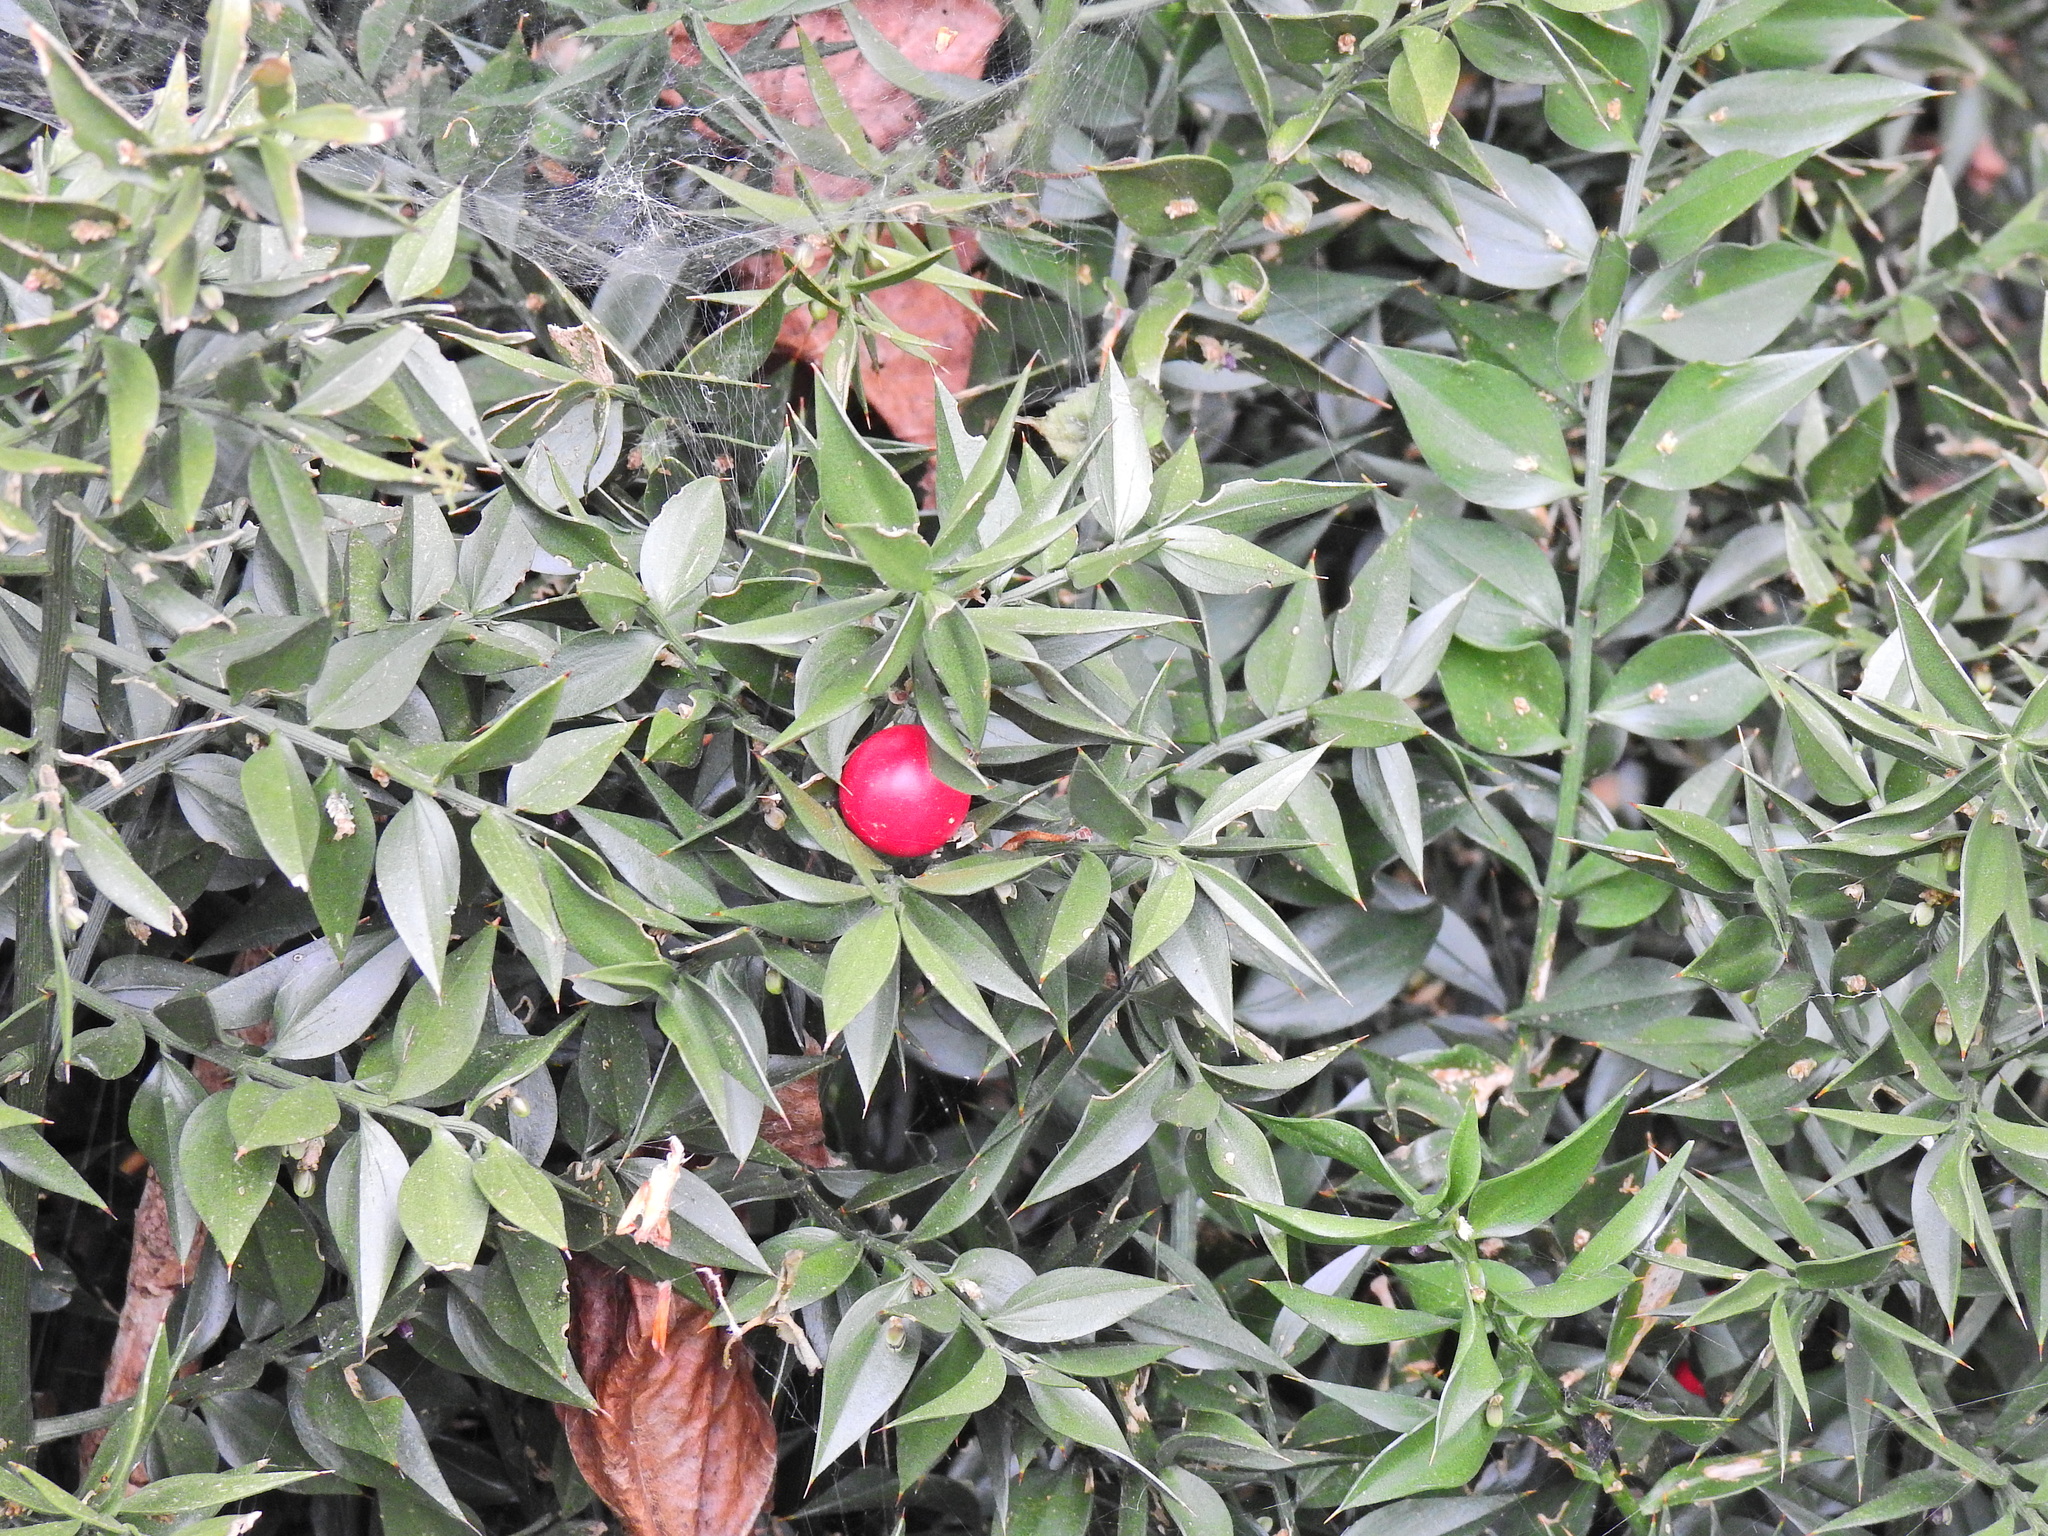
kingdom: Plantae
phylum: Tracheophyta
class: Liliopsida
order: Asparagales
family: Asparagaceae
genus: Ruscus
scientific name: Ruscus aculeatus
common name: Butcher's-broom
